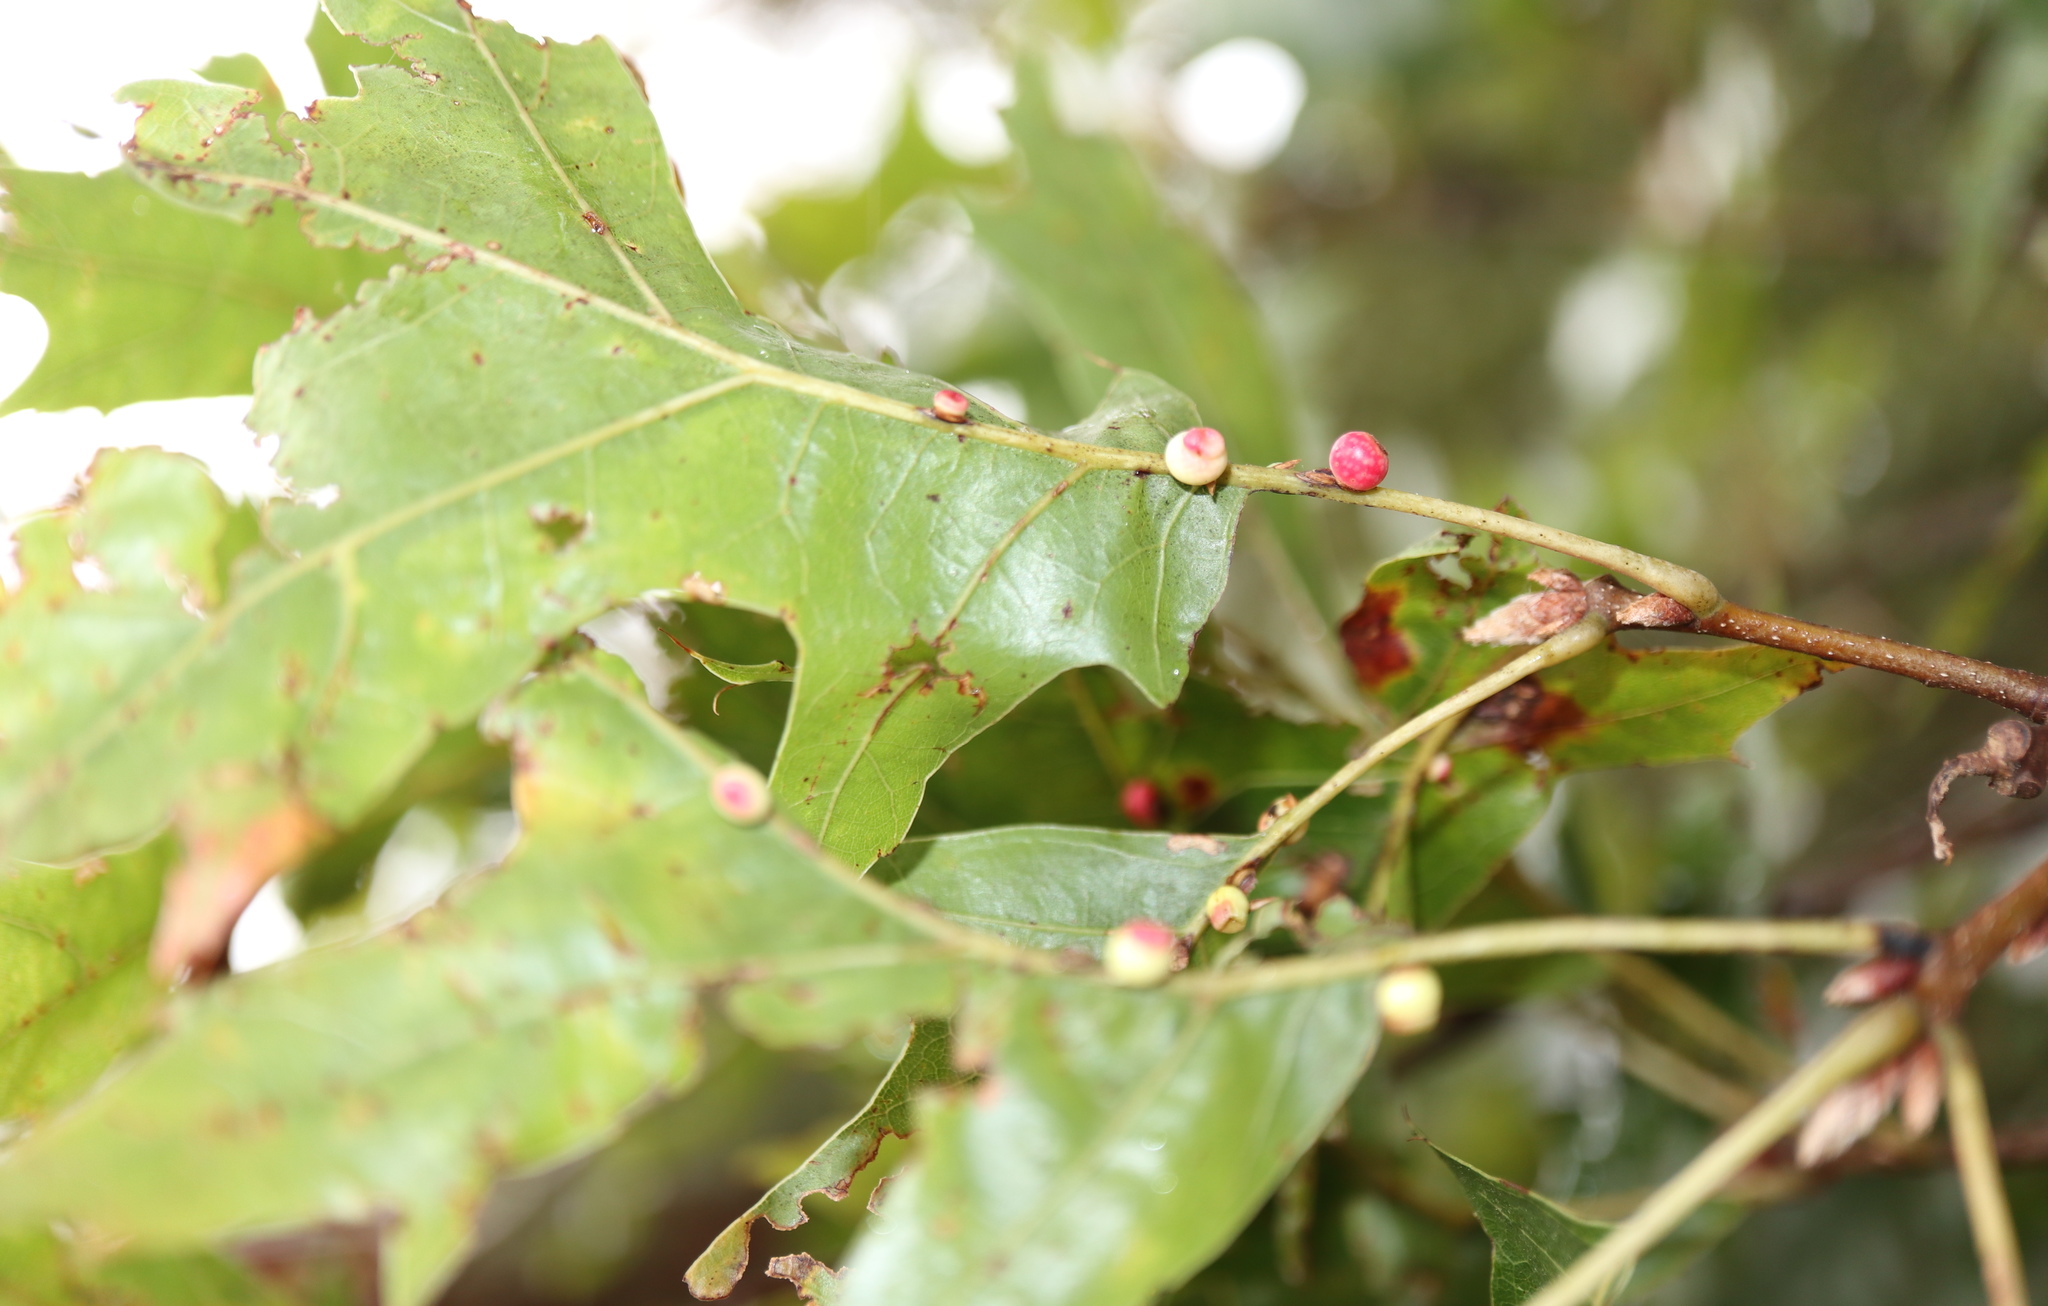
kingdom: Animalia
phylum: Arthropoda
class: Insecta
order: Hymenoptera
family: Cynipidae
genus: Kokkocynips
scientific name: Kokkocynips rileyi
